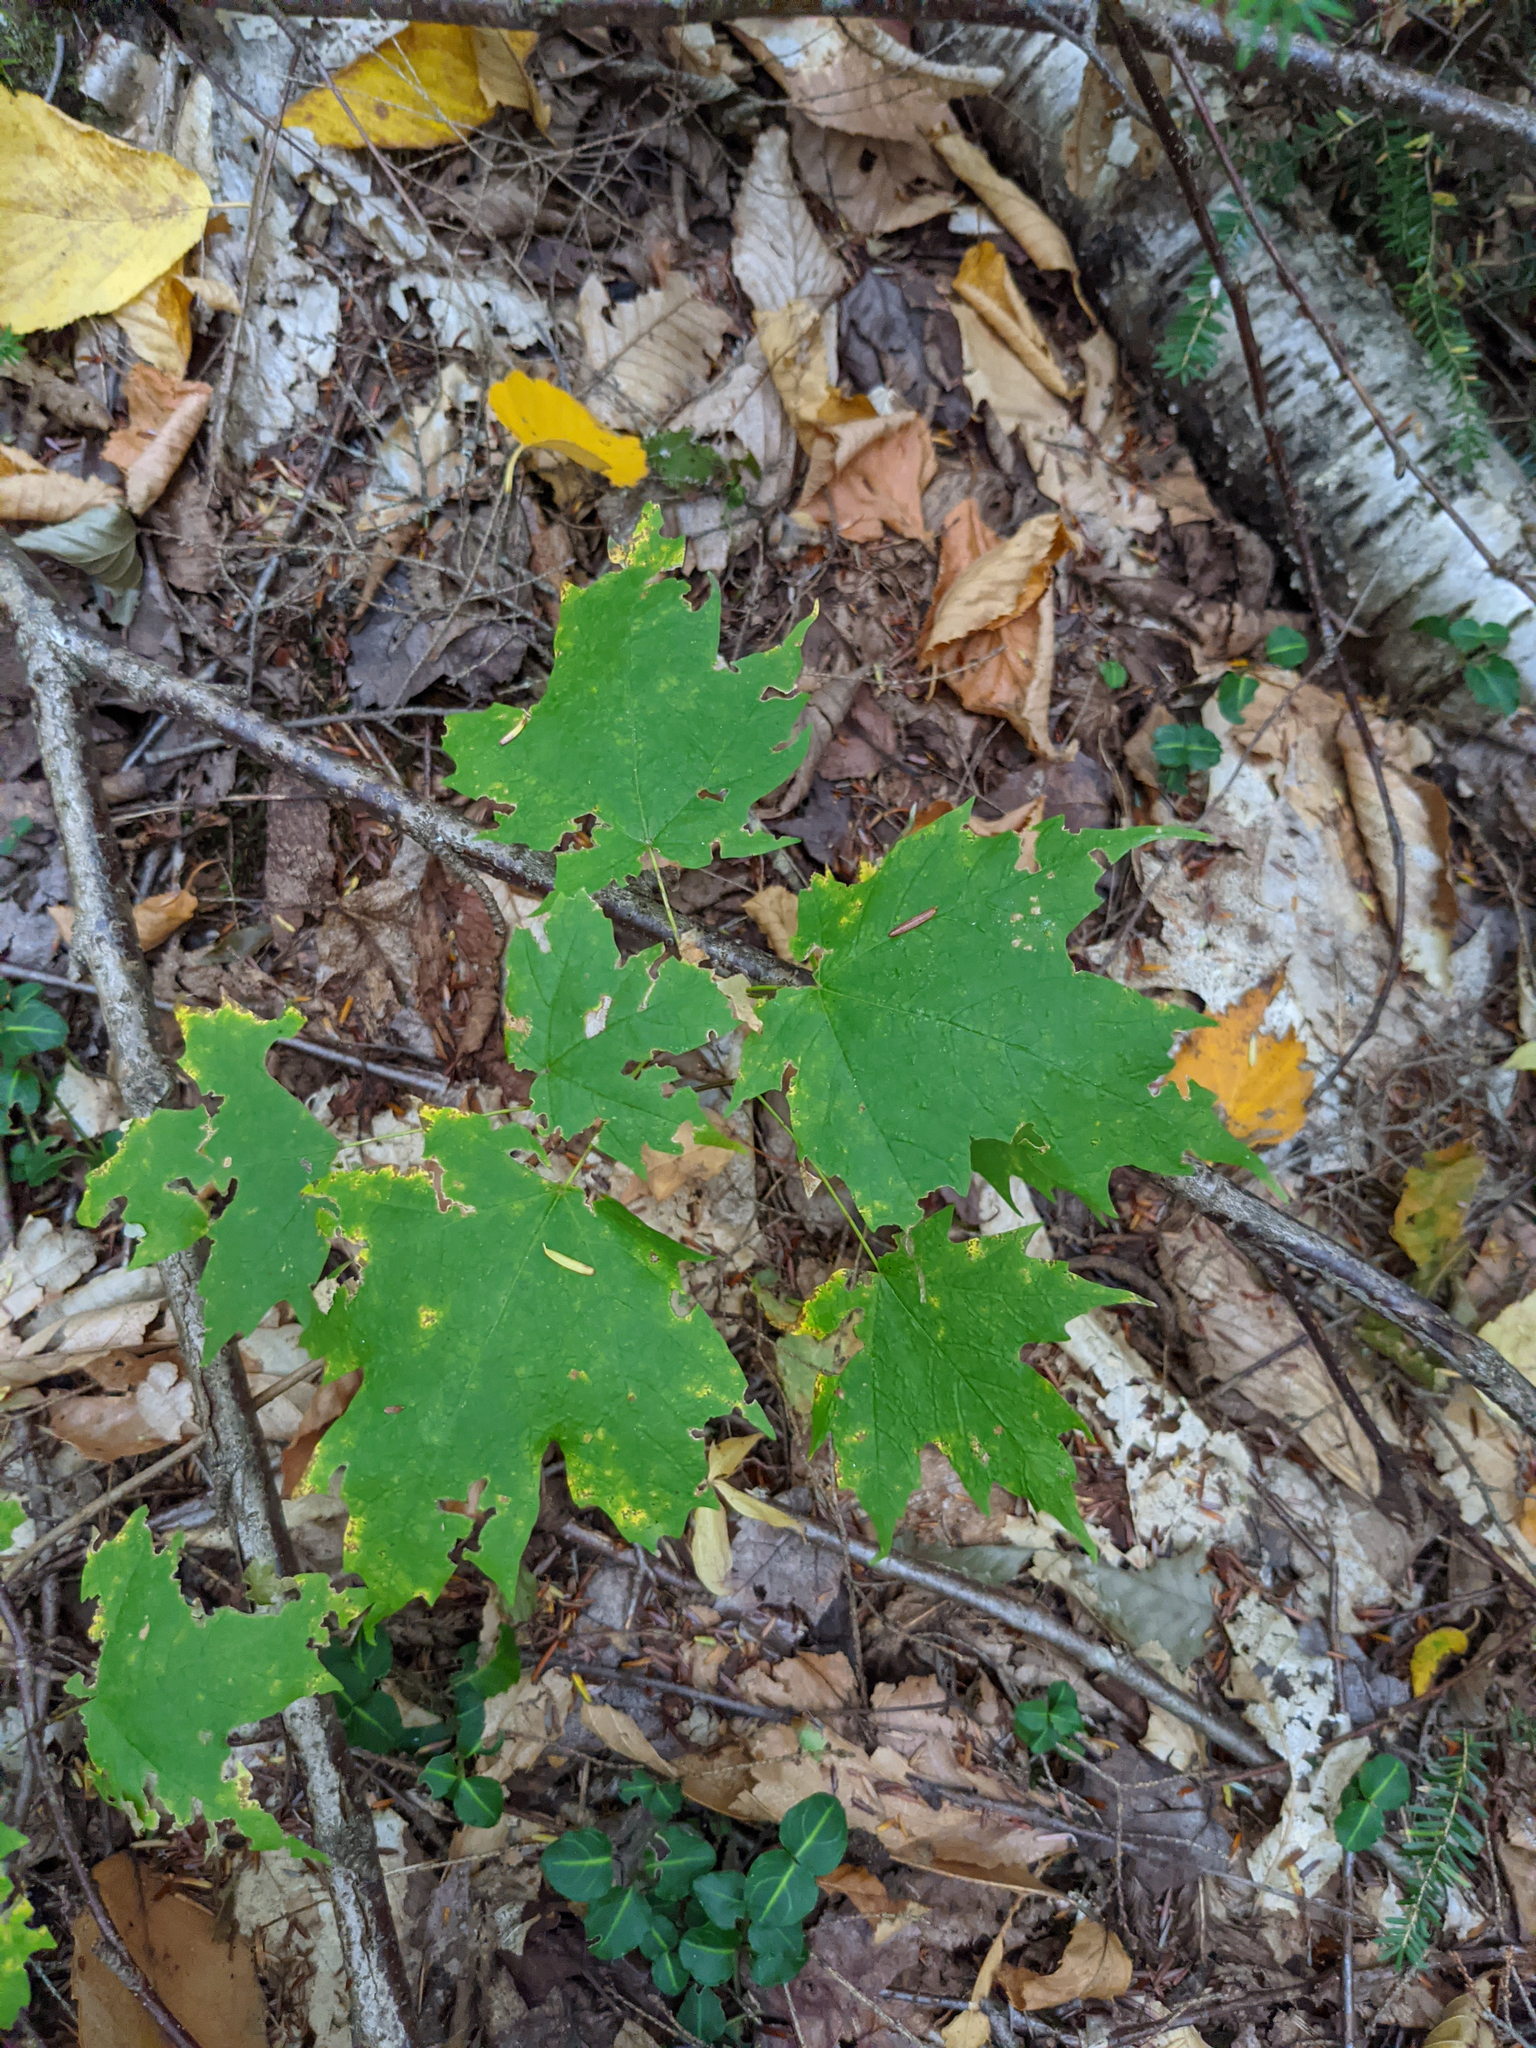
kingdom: Plantae
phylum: Tracheophyta
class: Magnoliopsida
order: Gentianales
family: Rubiaceae
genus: Mitchella
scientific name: Mitchella repens
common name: Partridge-berry
